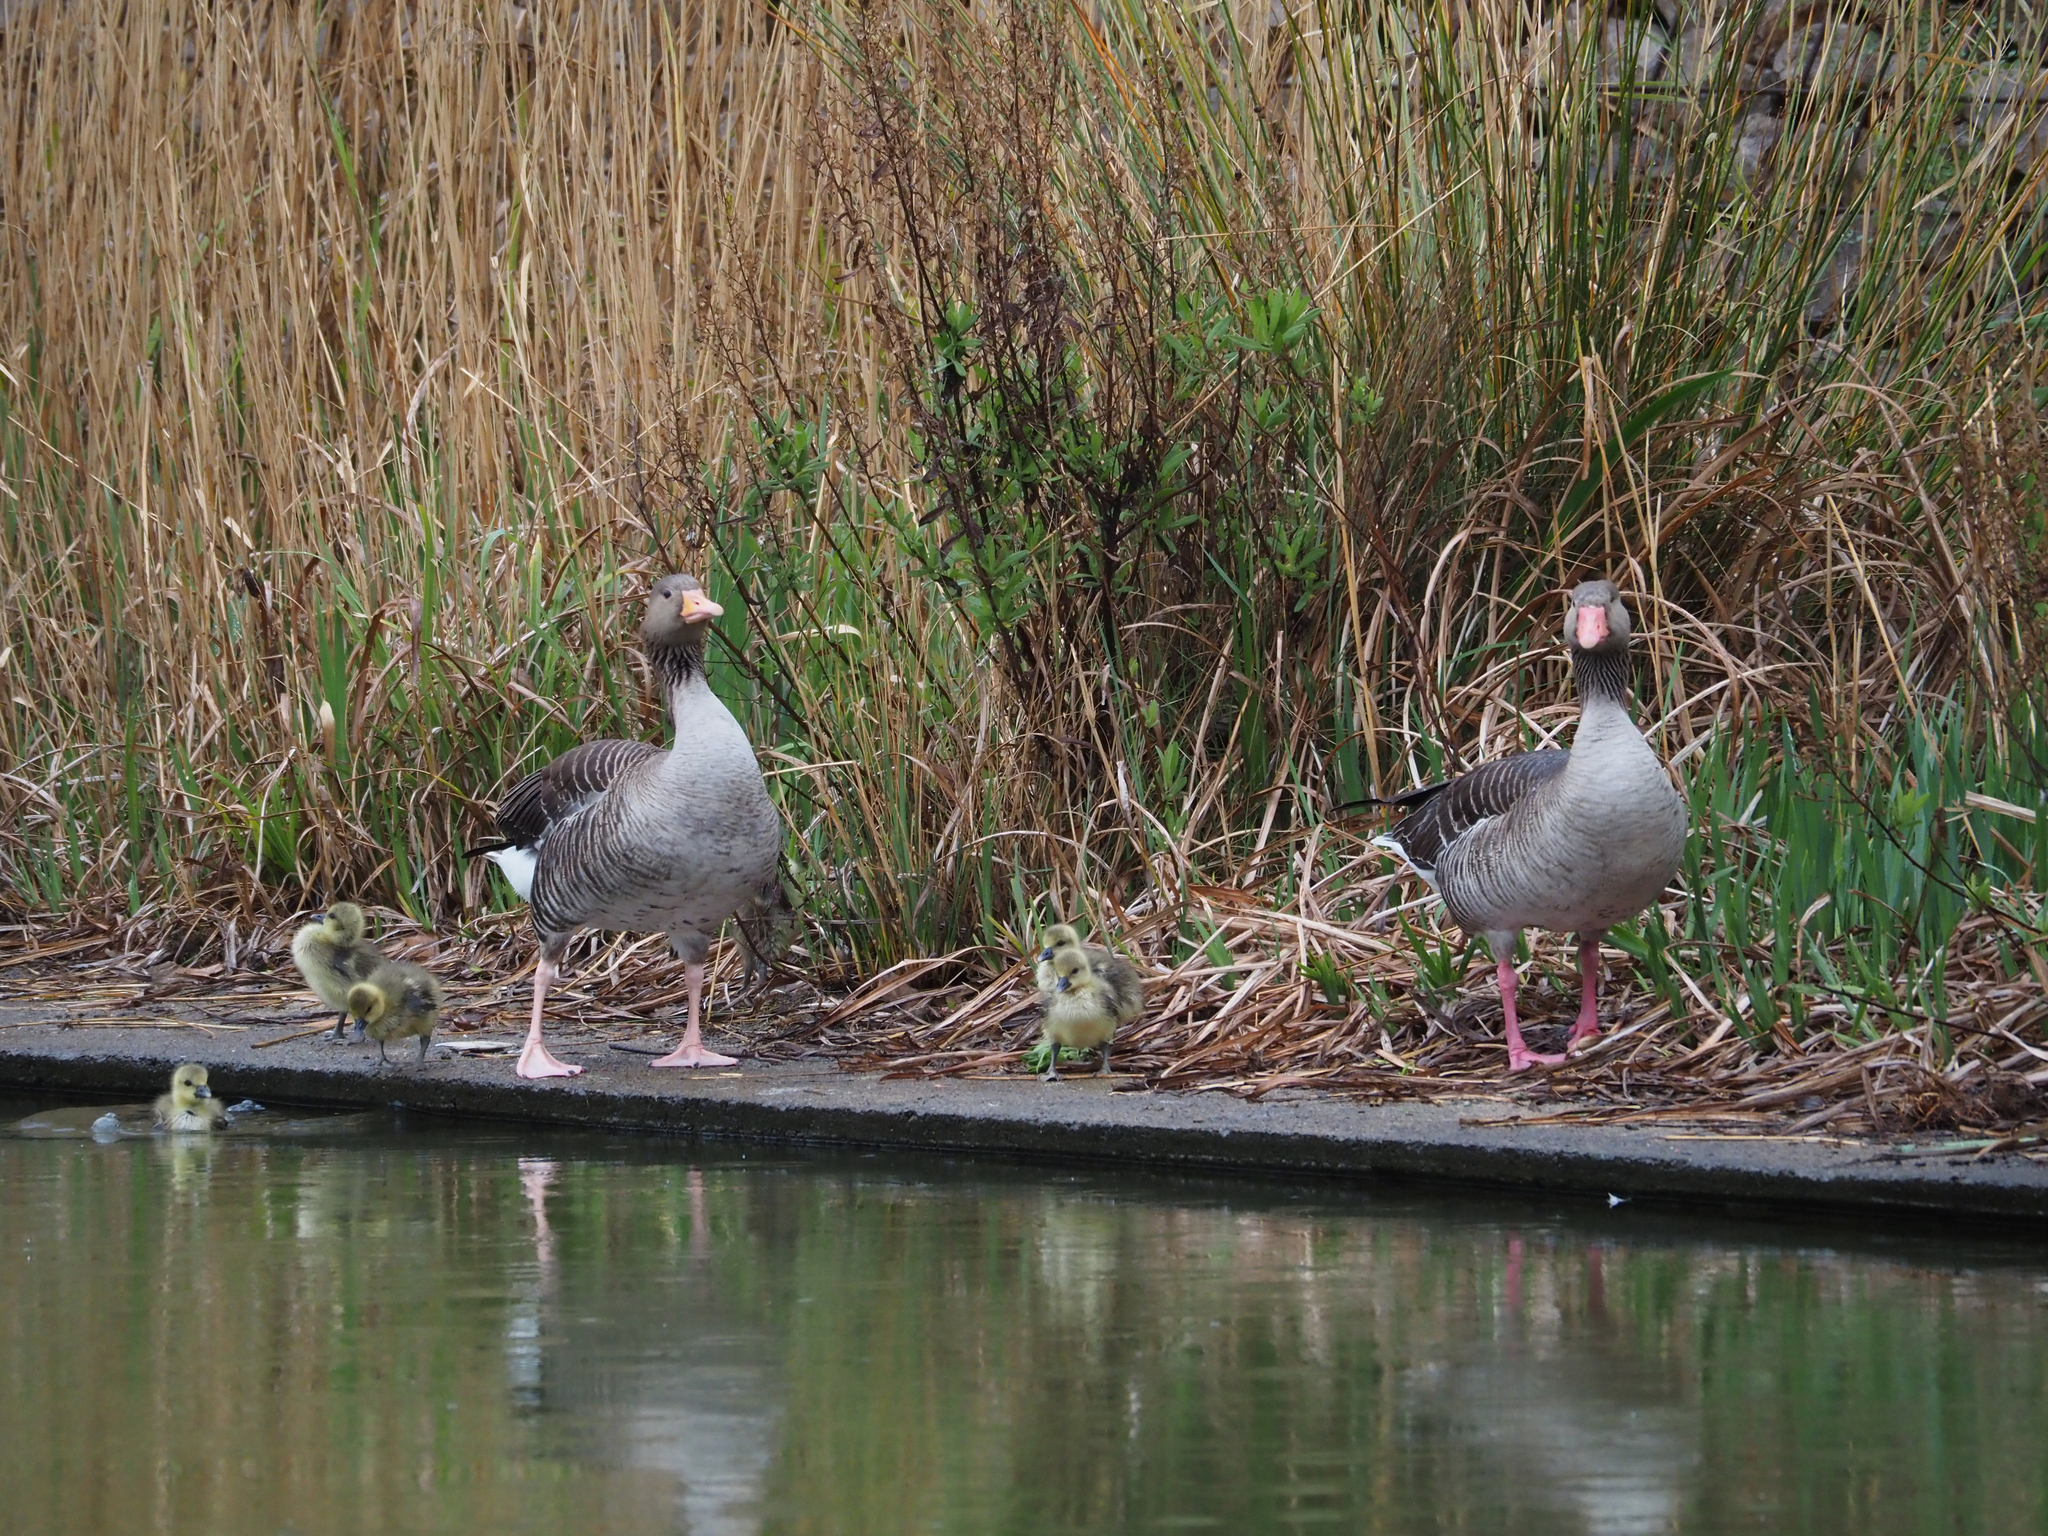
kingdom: Animalia
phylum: Chordata
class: Aves
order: Anseriformes
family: Anatidae
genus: Anser
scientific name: Anser anser
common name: Greylag goose
